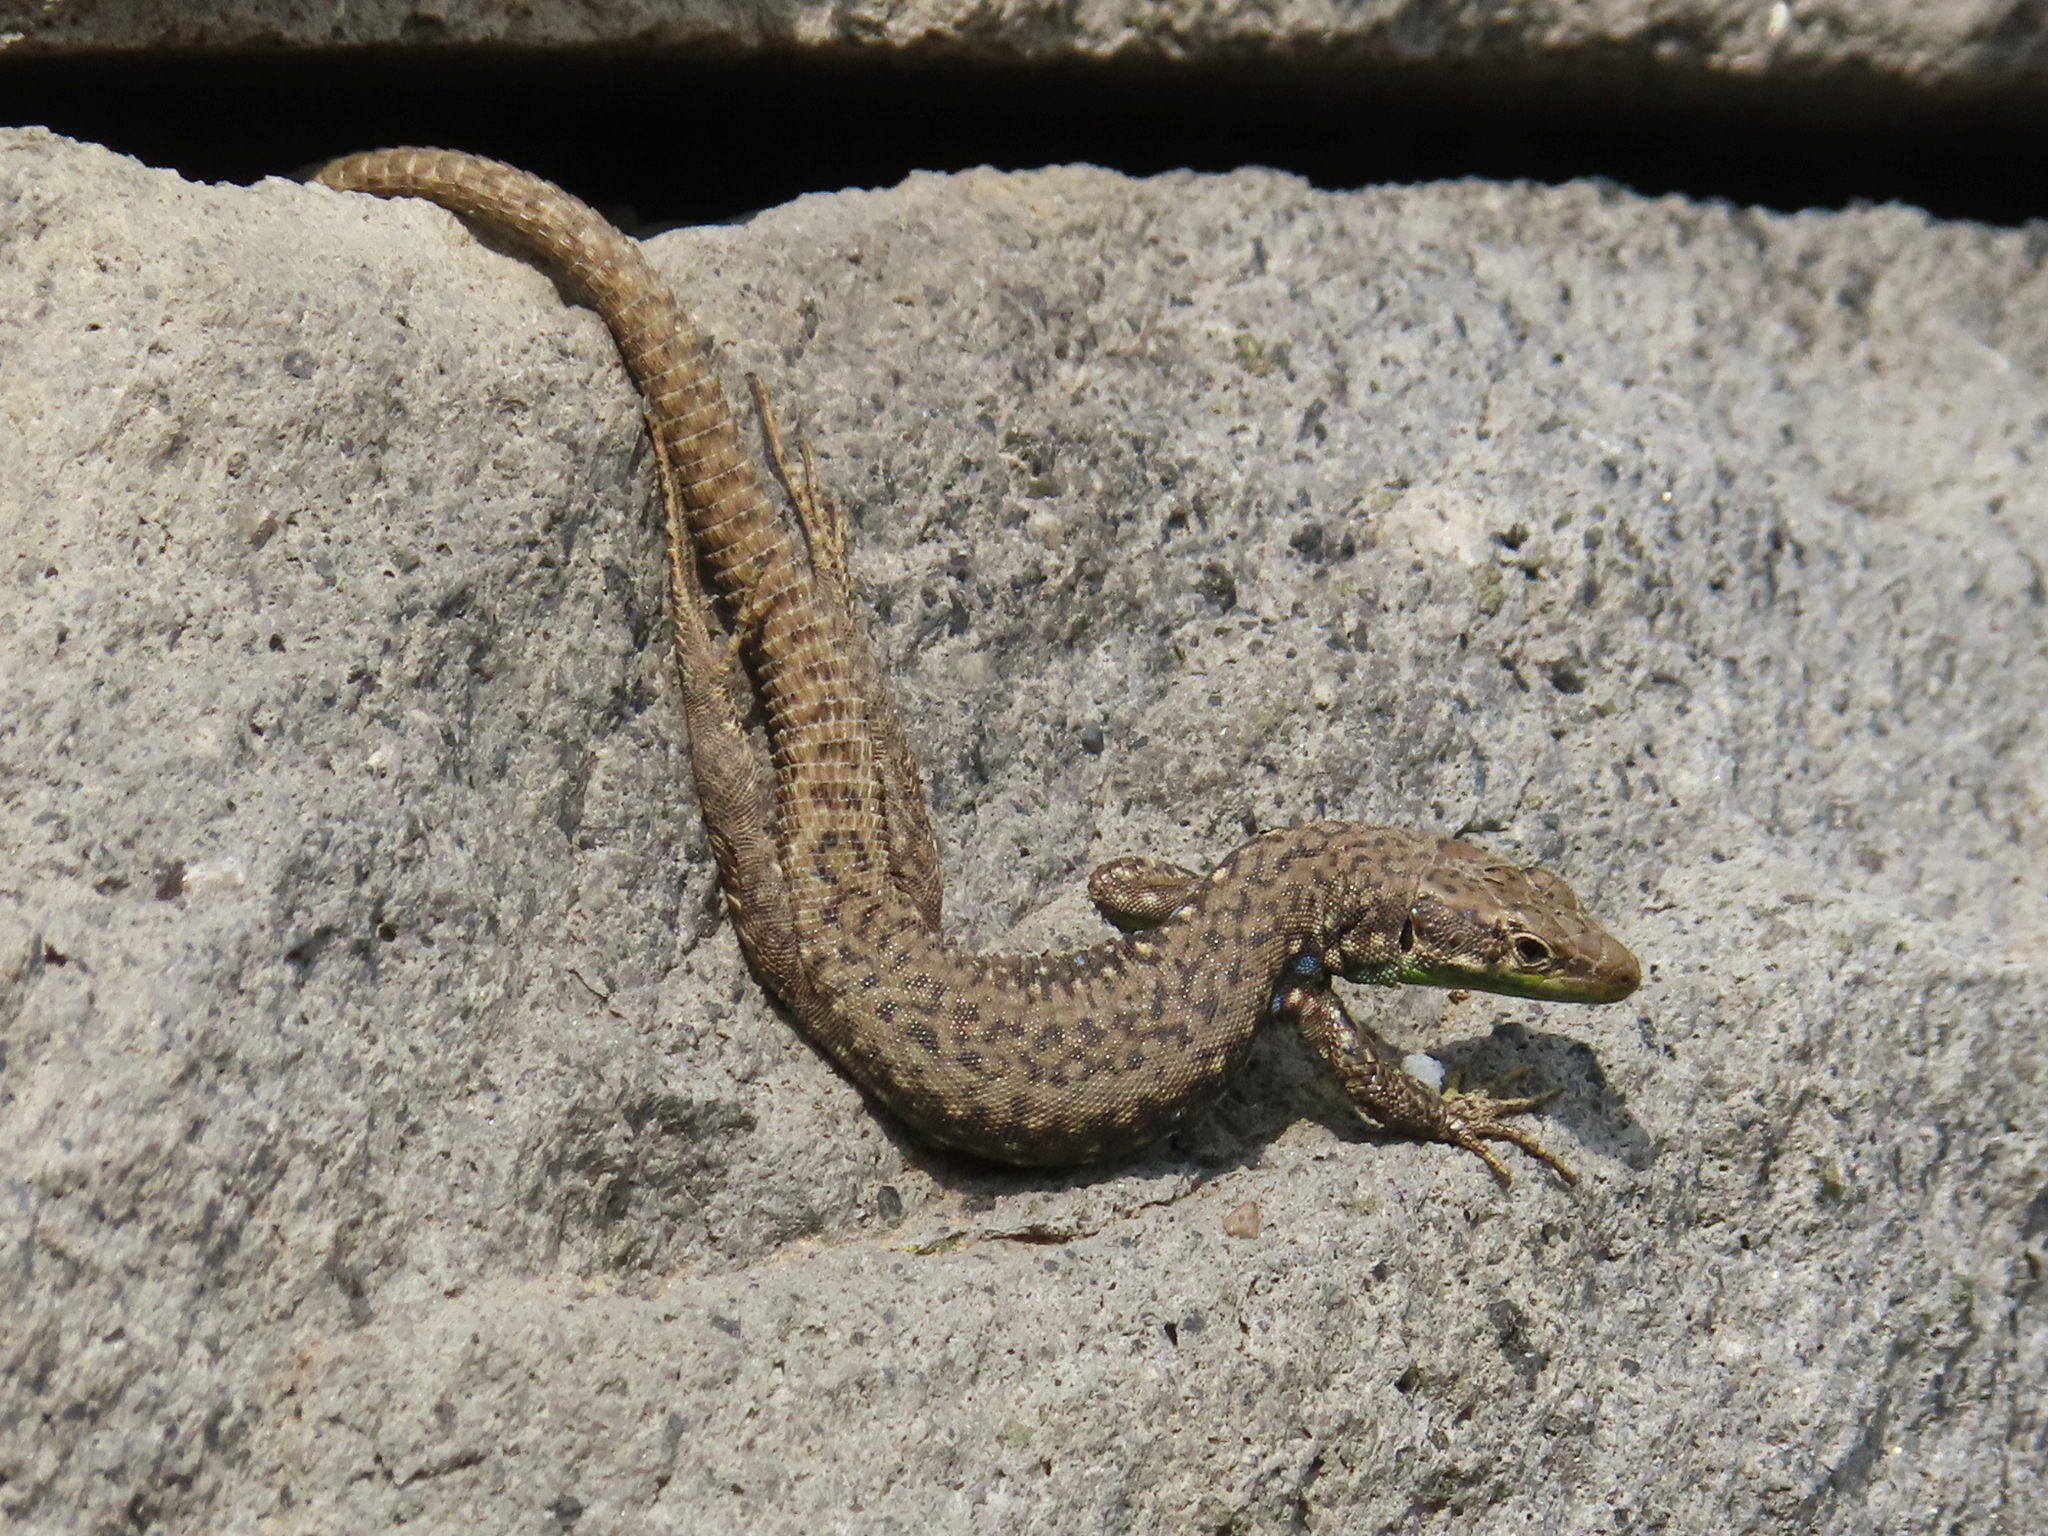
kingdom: Animalia
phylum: Chordata
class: Squamata
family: Lacertidae
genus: Darevskia
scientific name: Darevskia raddei
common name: Radde's lizard
